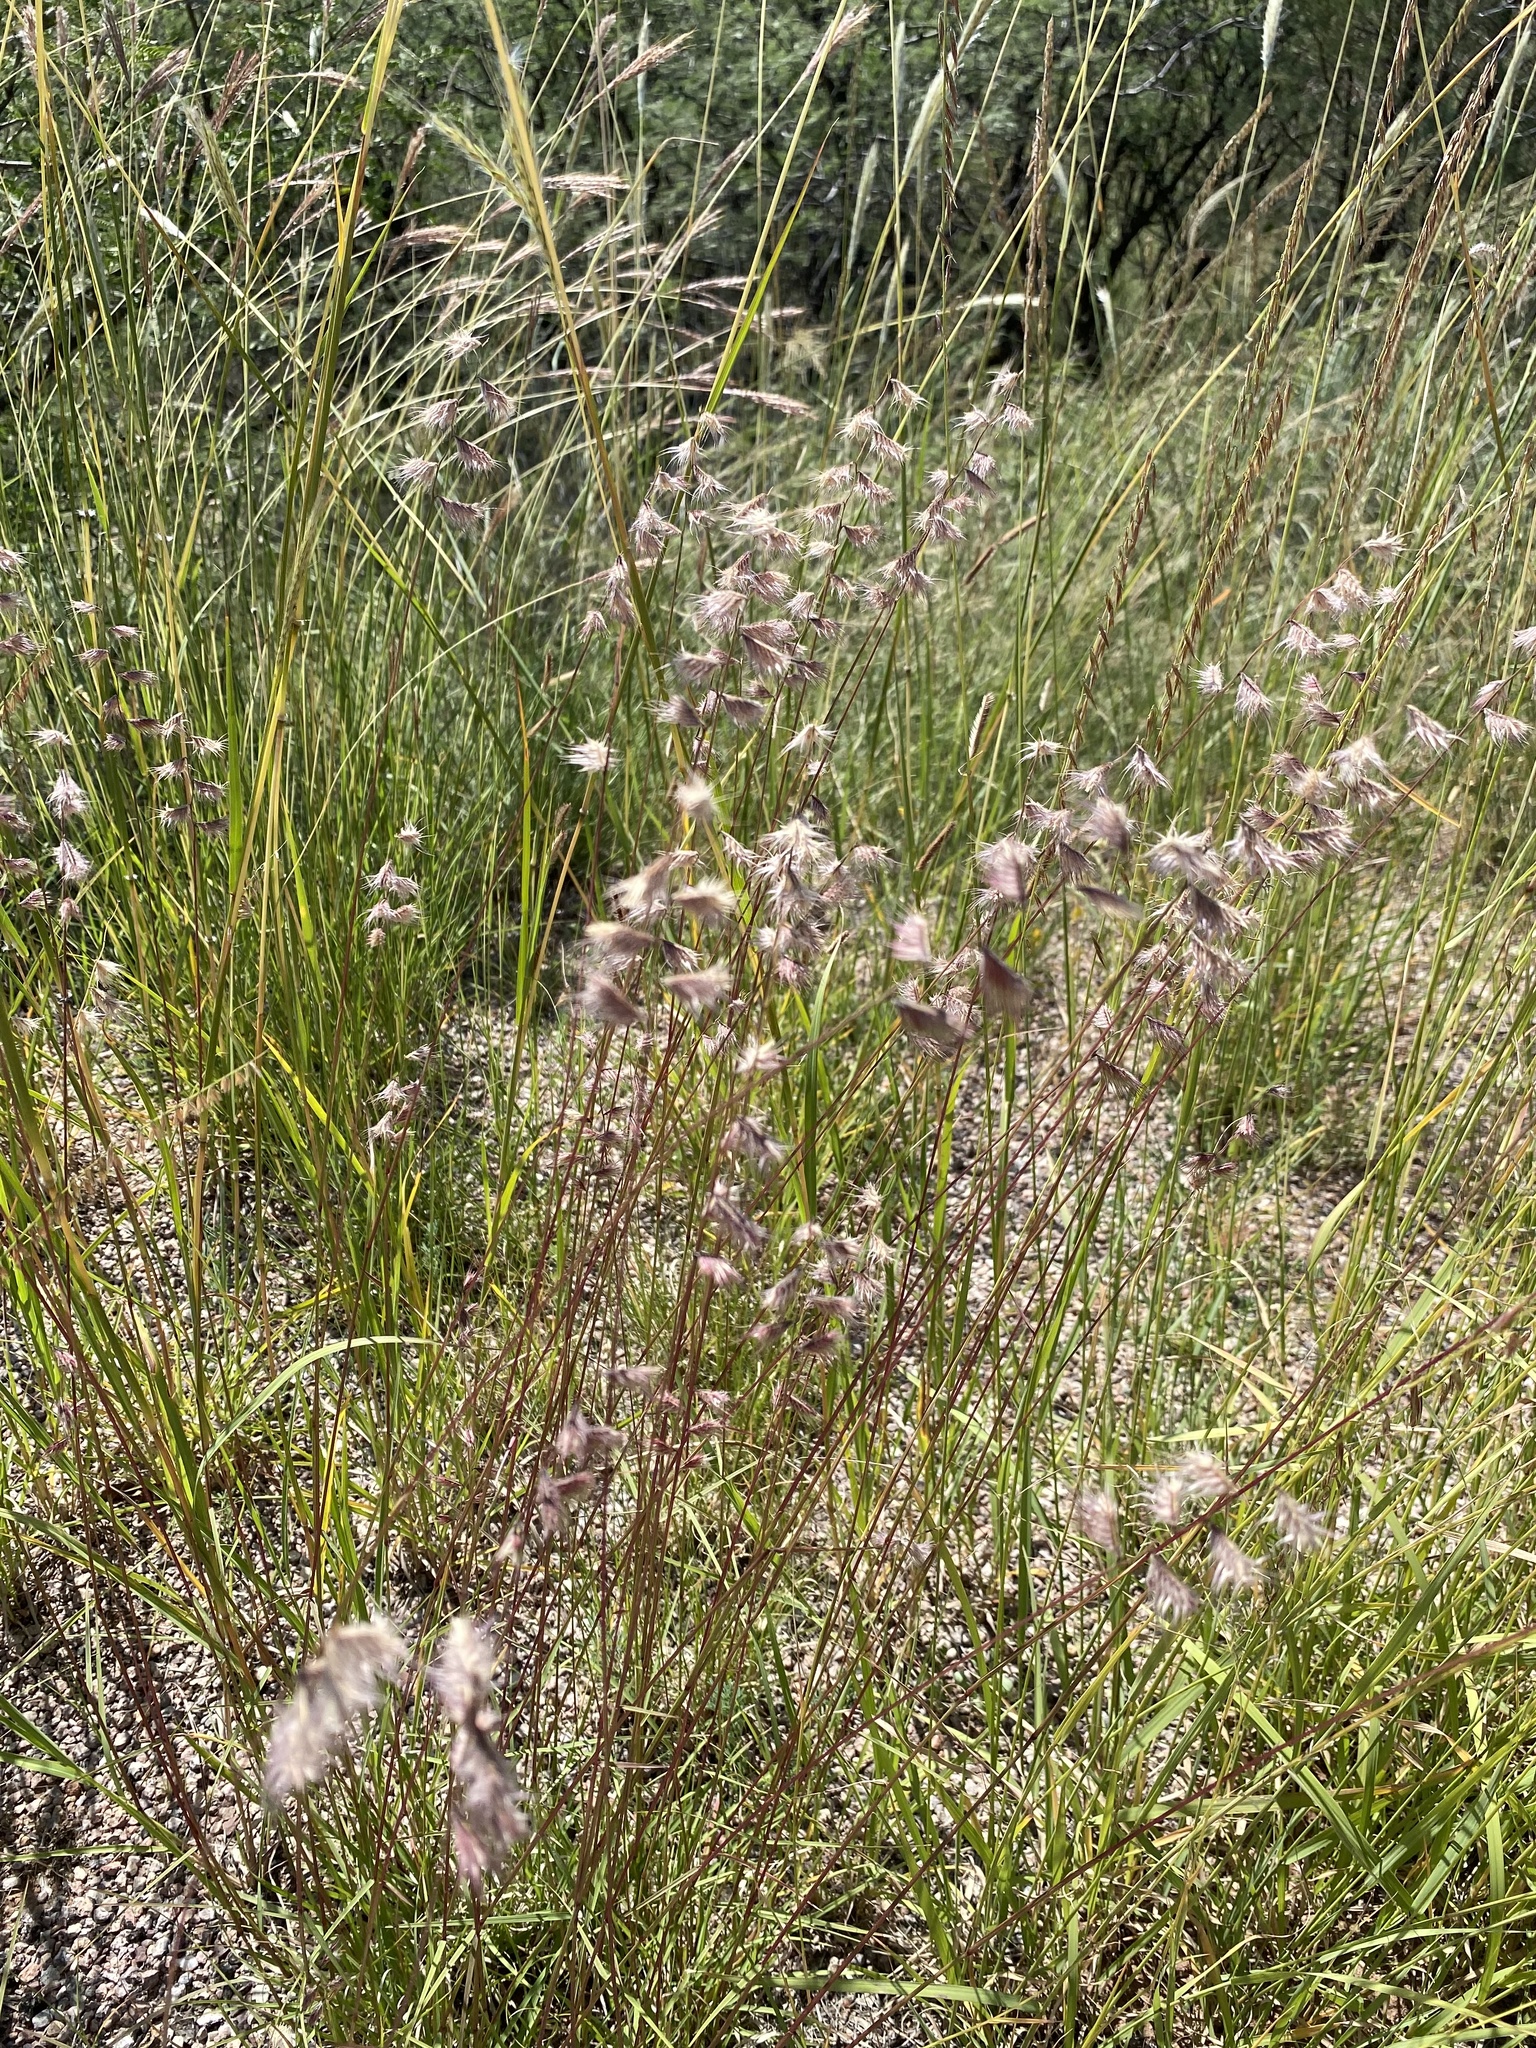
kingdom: Plantae
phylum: Tracheophyta
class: Liliopsida
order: Poales
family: Poaceae
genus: Bouteloua
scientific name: Bouteloua chondrosioides
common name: Sprucetop grama
